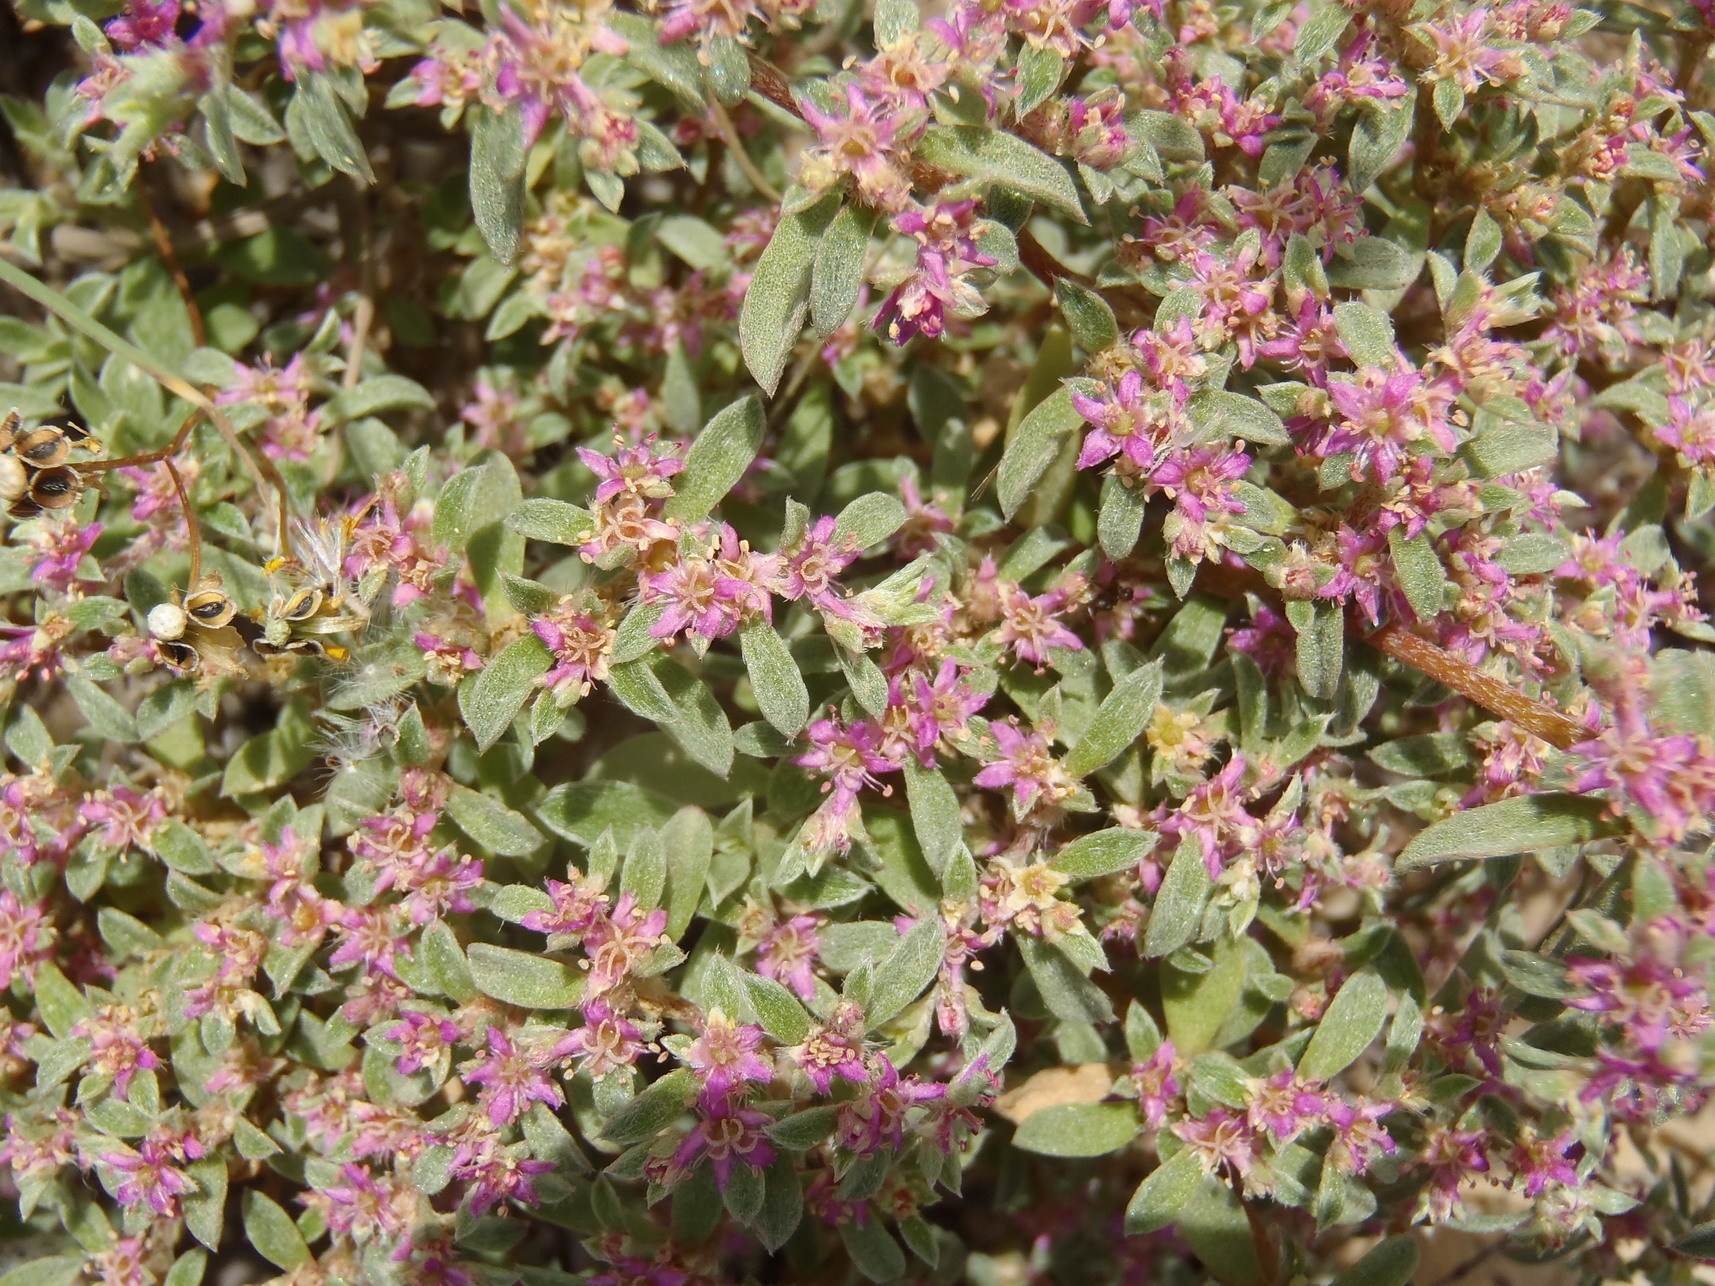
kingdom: Plantae
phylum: Tracheophyta
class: Magnoliopsida
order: Caryophyllales
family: Aizoaceae
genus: Aizoon
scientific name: Aizoon portulacaceum
